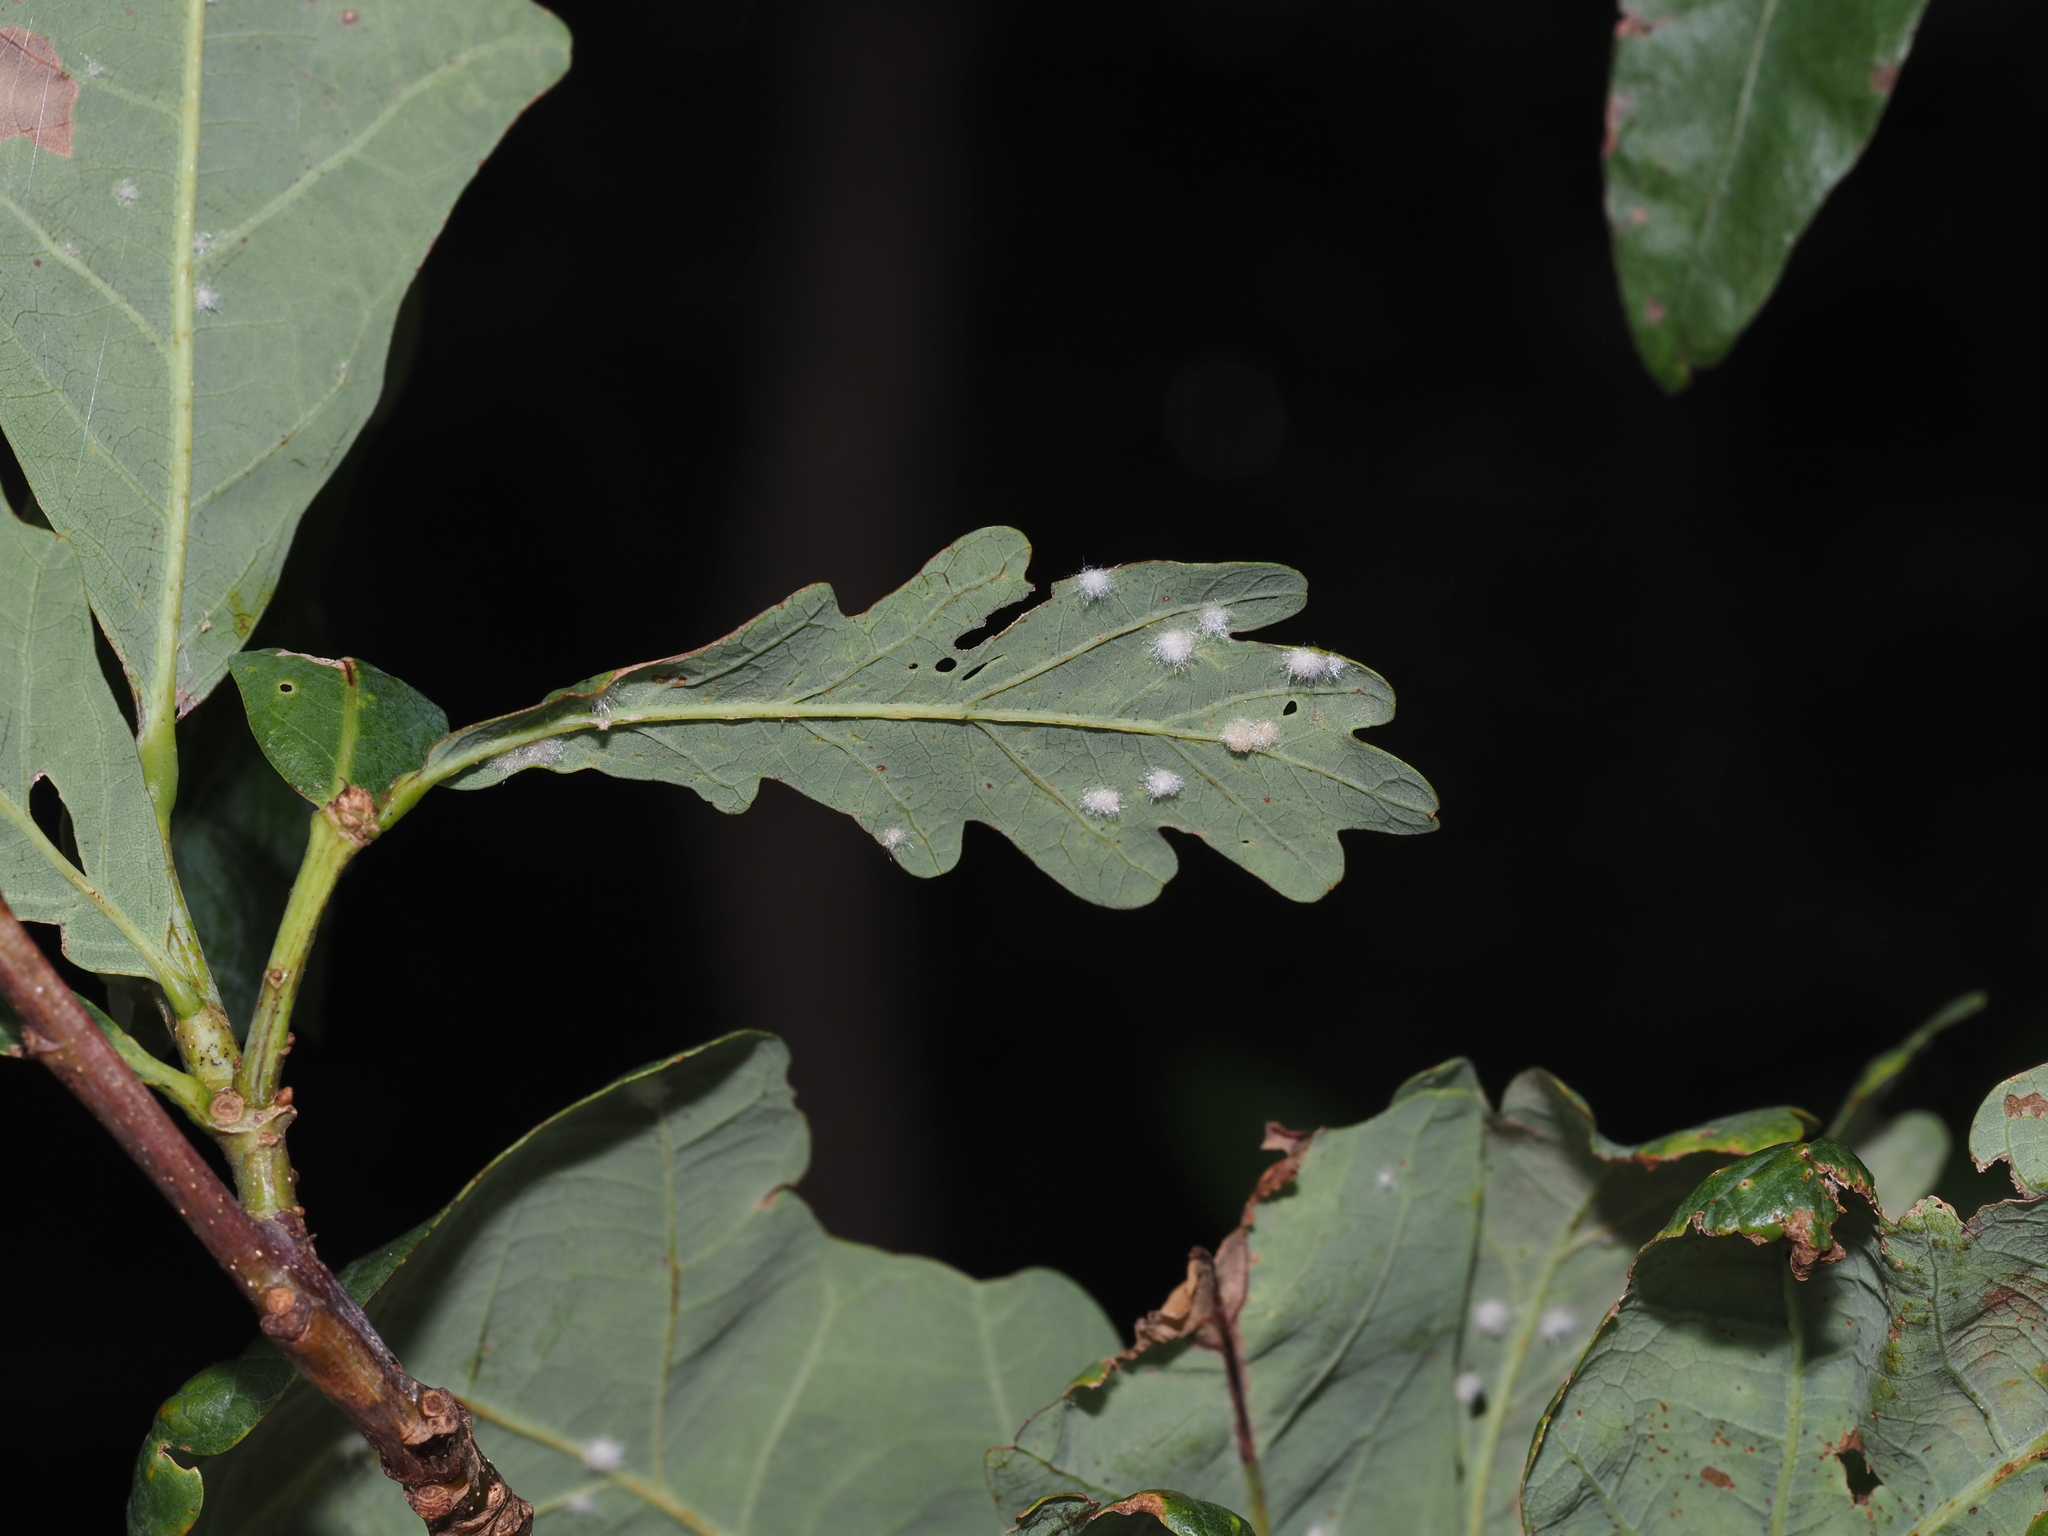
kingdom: Animalia
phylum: Arthropoda
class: Insecta
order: Hymenoptera
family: Cynipidae
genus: Neuroterus
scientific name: Neuroterus quercusverrucarum
